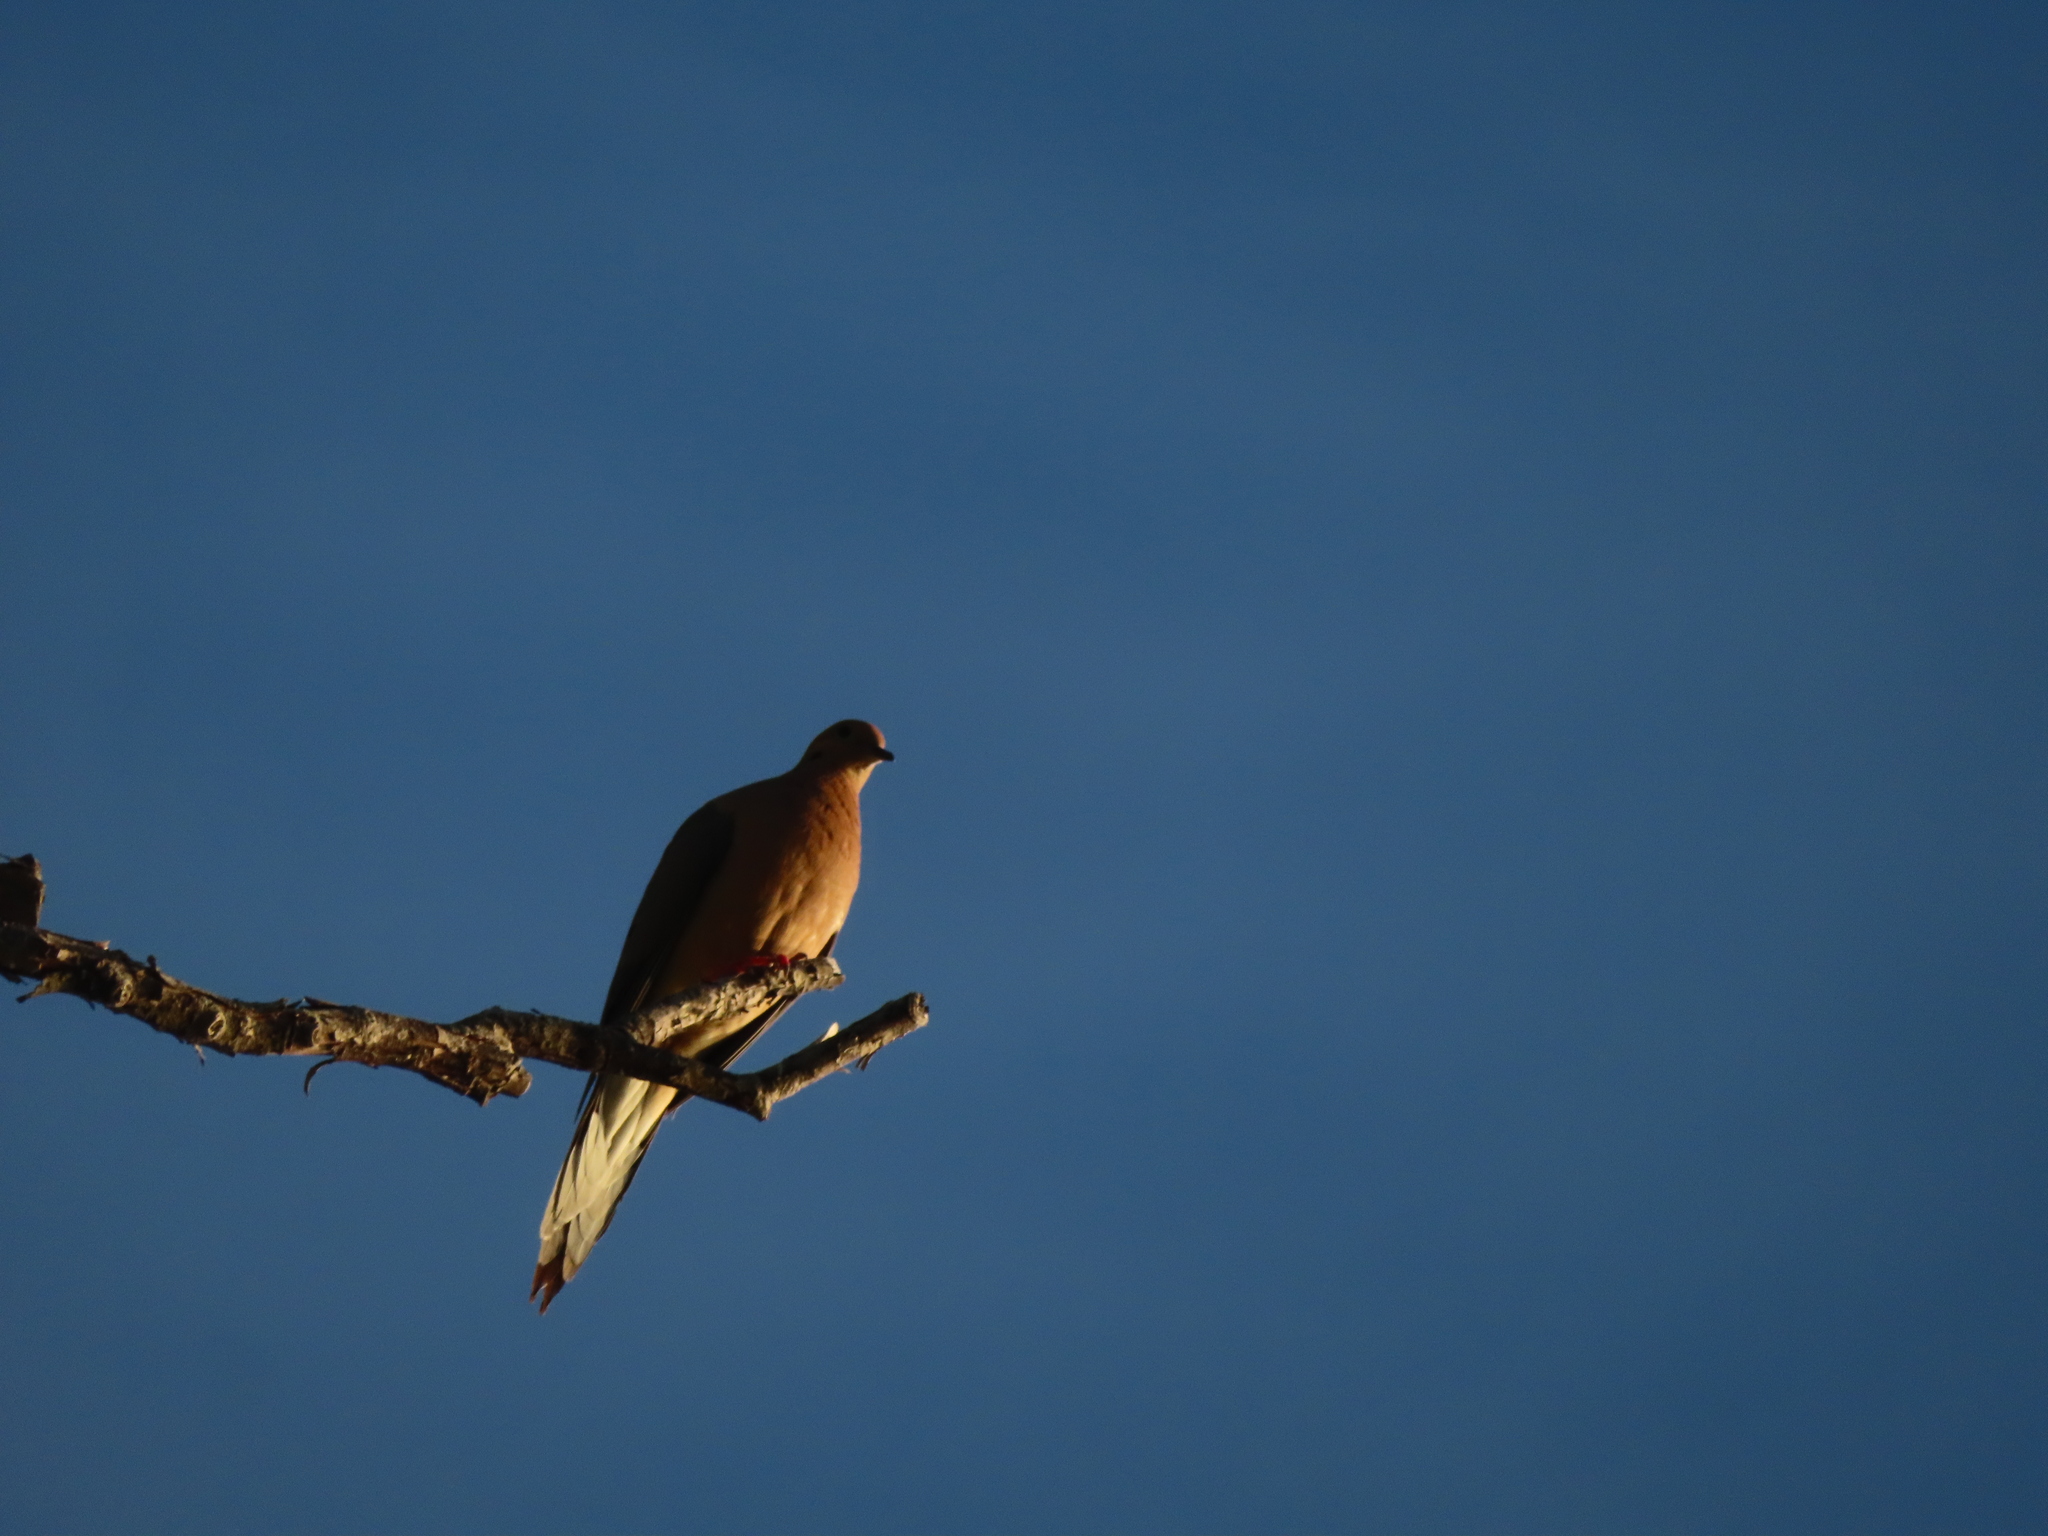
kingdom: Animalia
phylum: Chordata
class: Aves
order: Columbiformes
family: Columbidae
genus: Zenaida
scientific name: Zenaida macroura
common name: Mourning dove
